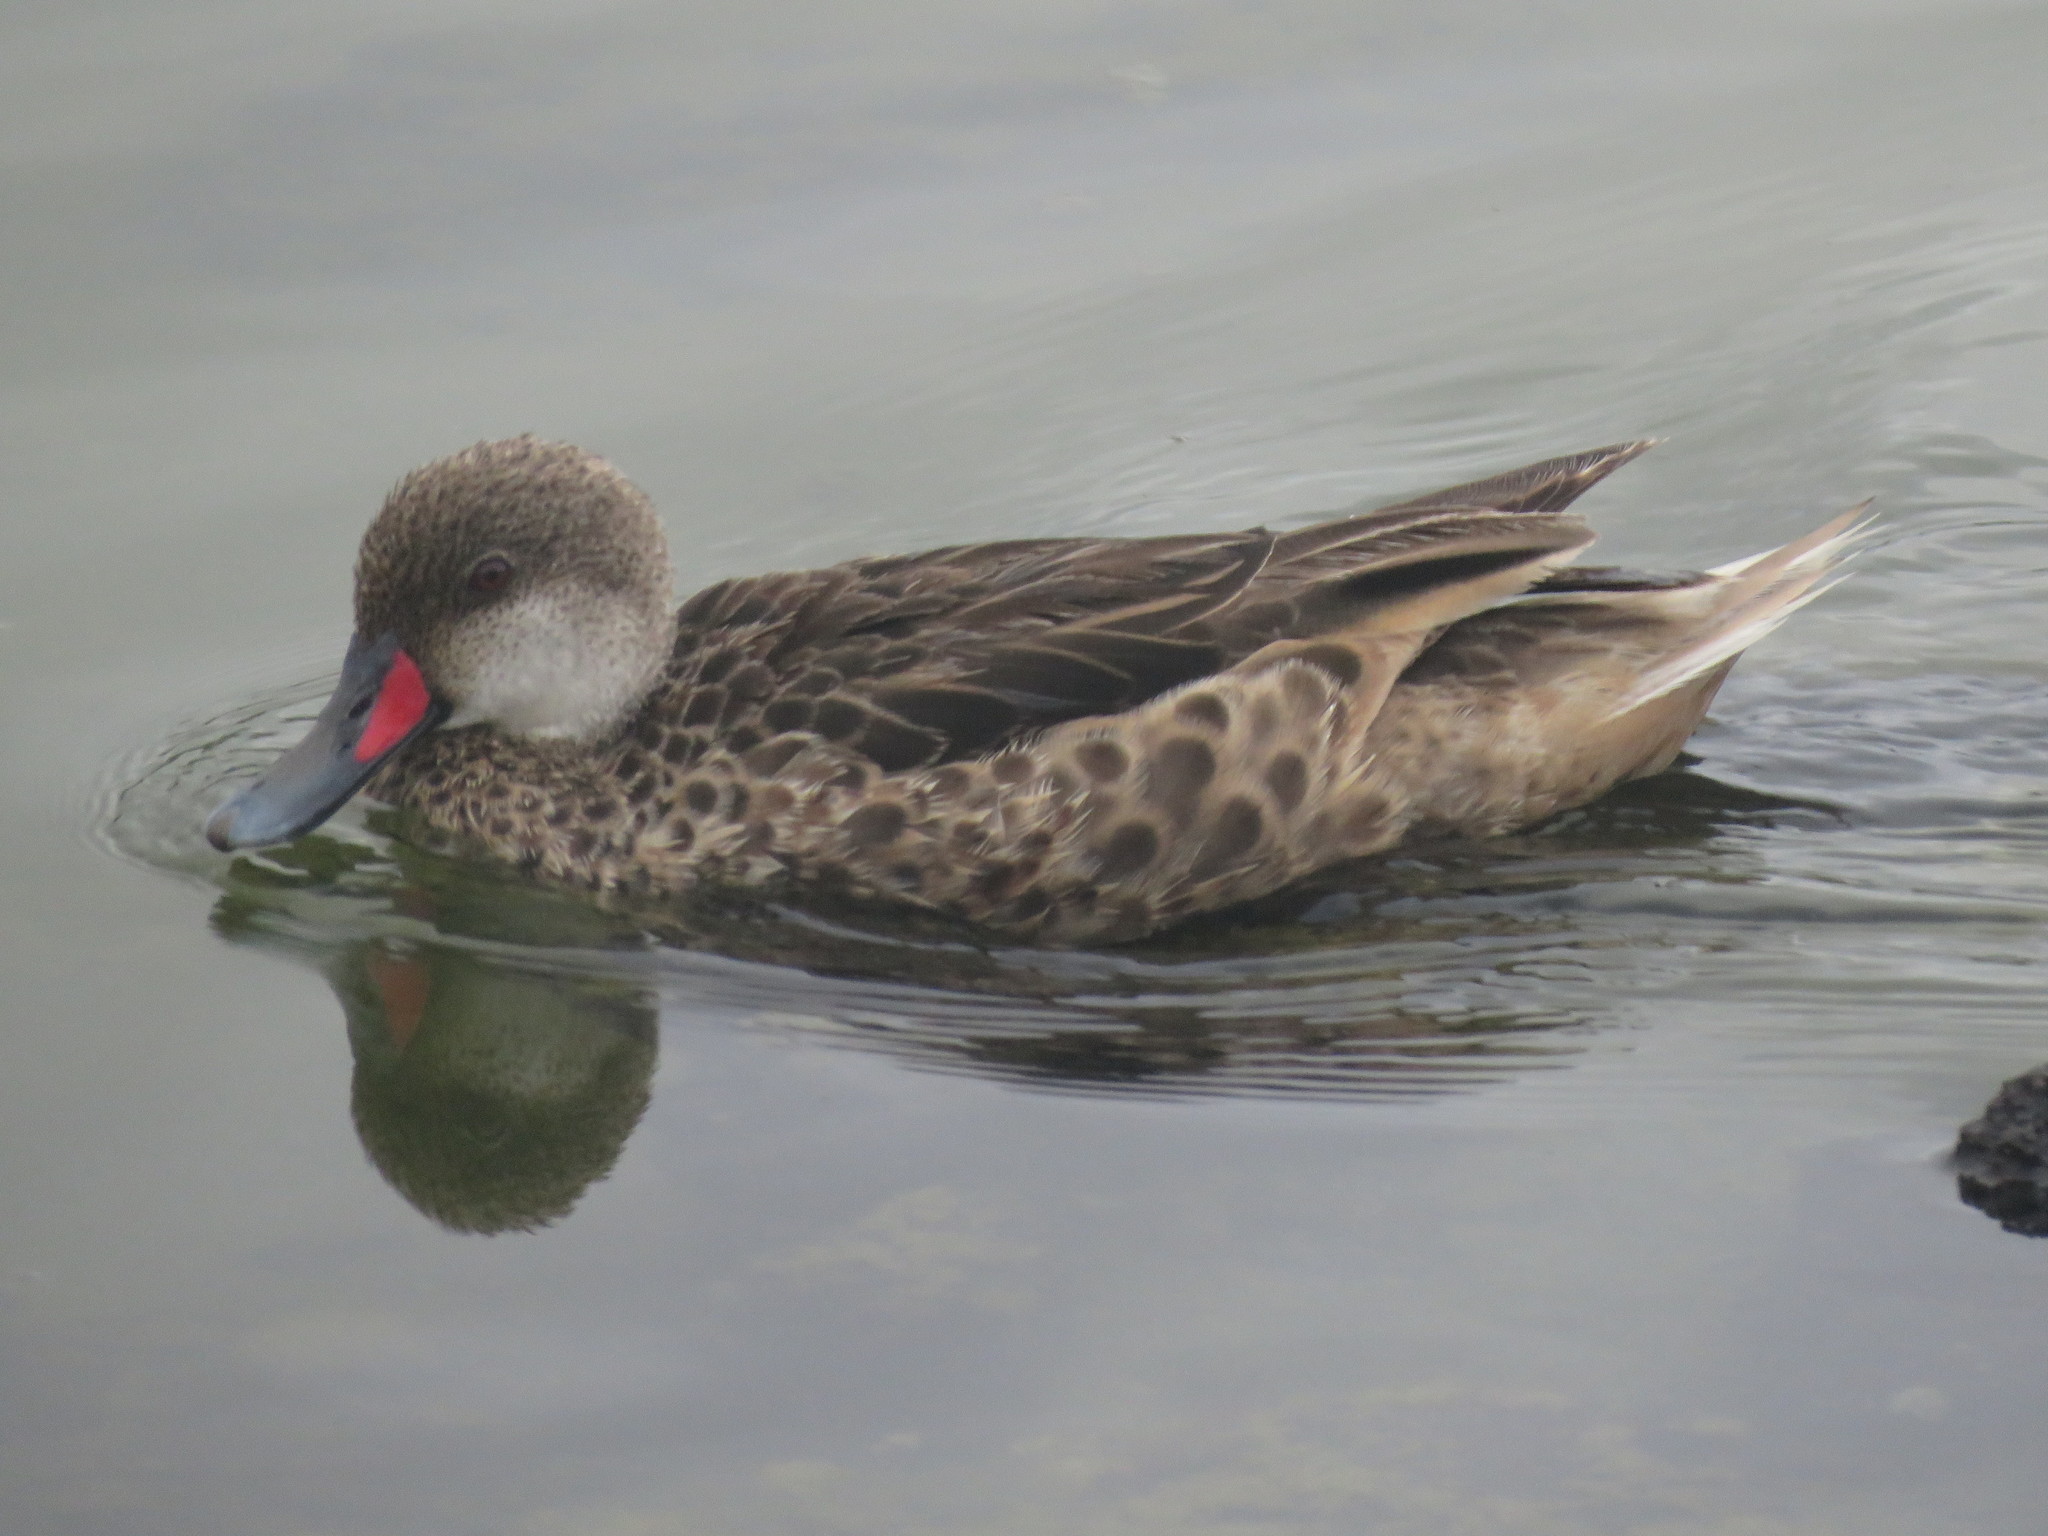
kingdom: Animalia
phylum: Chordata
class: Aves
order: Anseriformes
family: Anatidae
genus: Anas
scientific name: Anas bahamensis
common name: White-cheeked pintail
